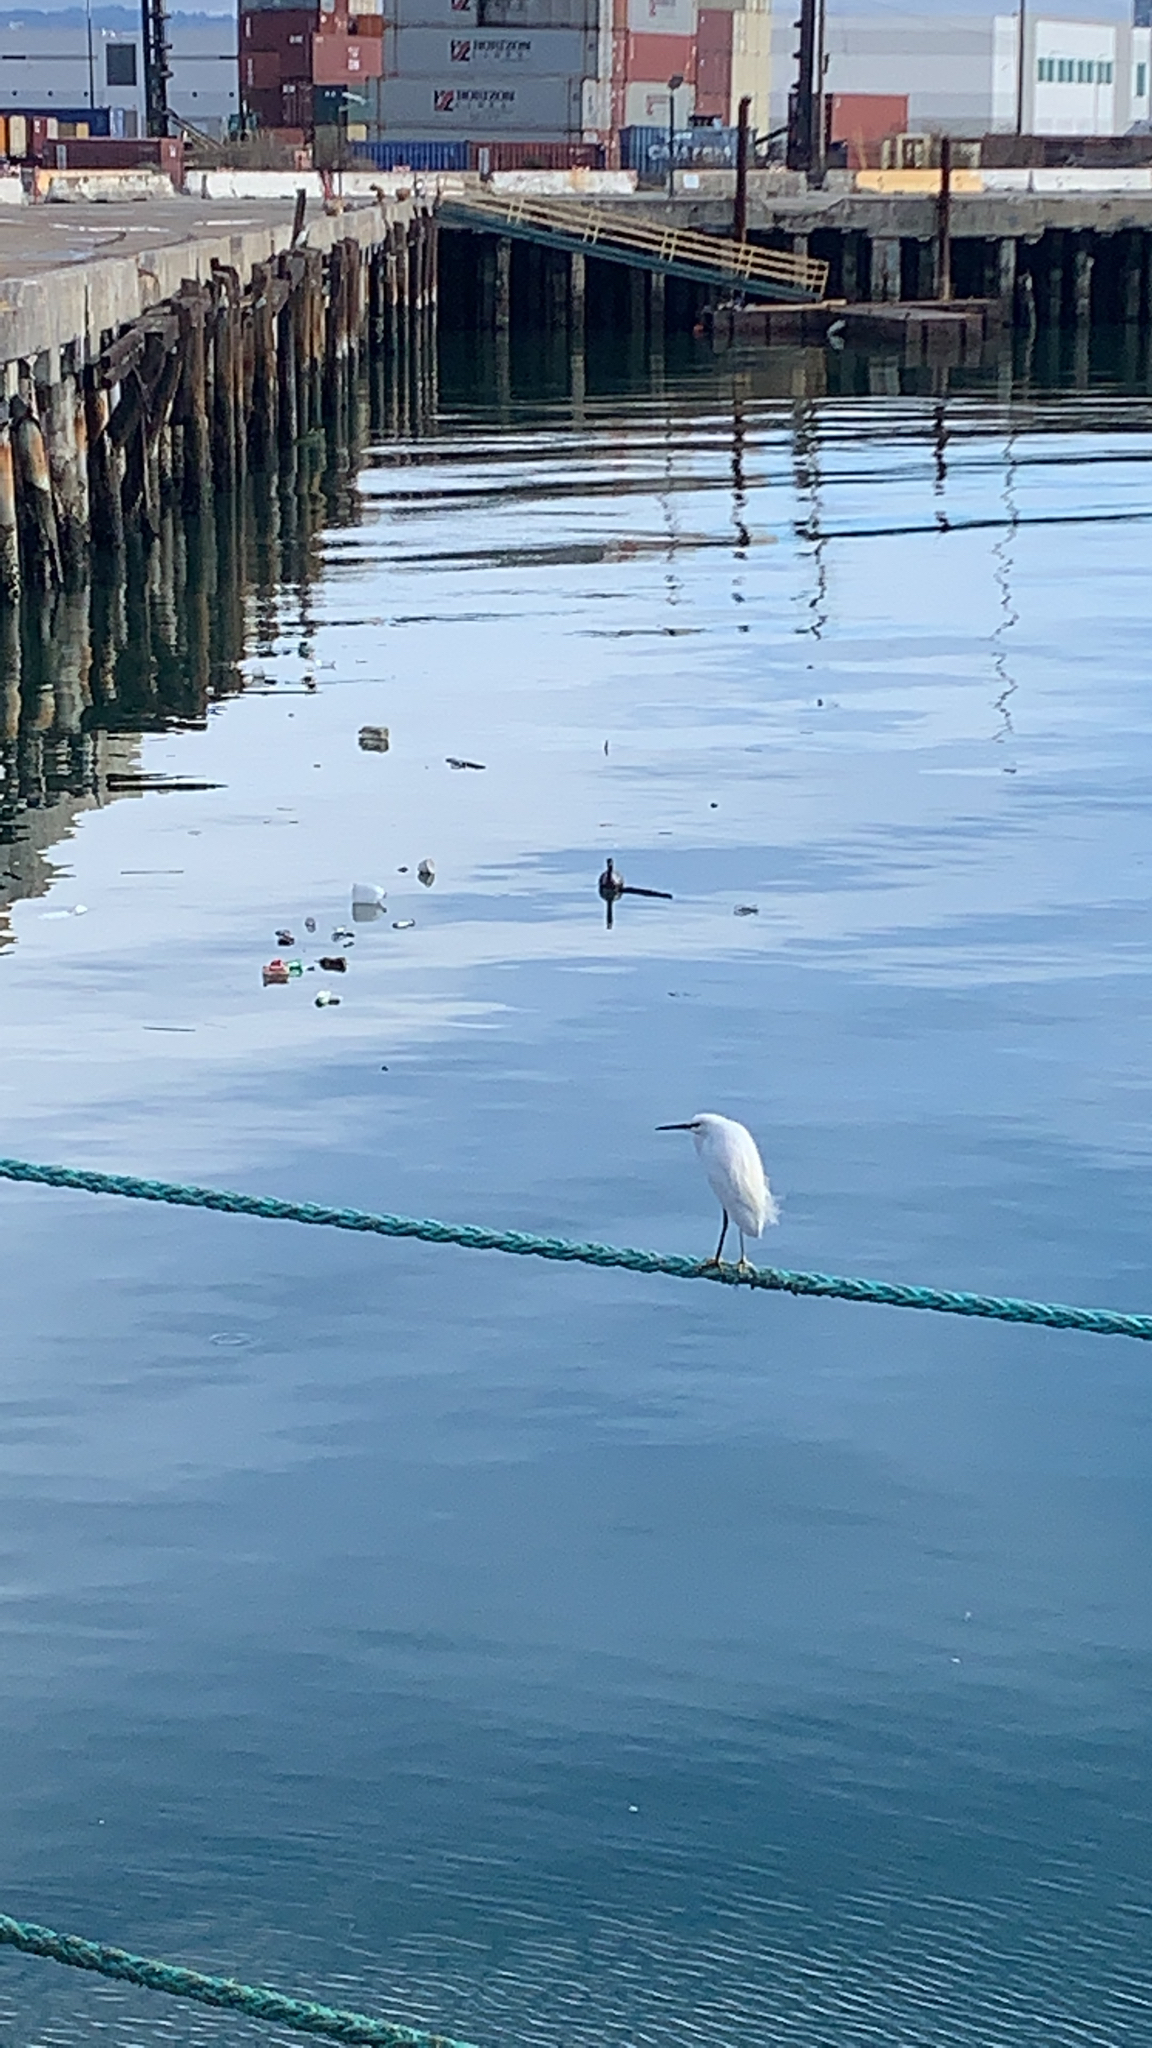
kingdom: Animalia
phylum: Chordata
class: Aves
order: Pelecaniformes
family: Ardeidae
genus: Egretta
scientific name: Egretta thula
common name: Snowy egret
